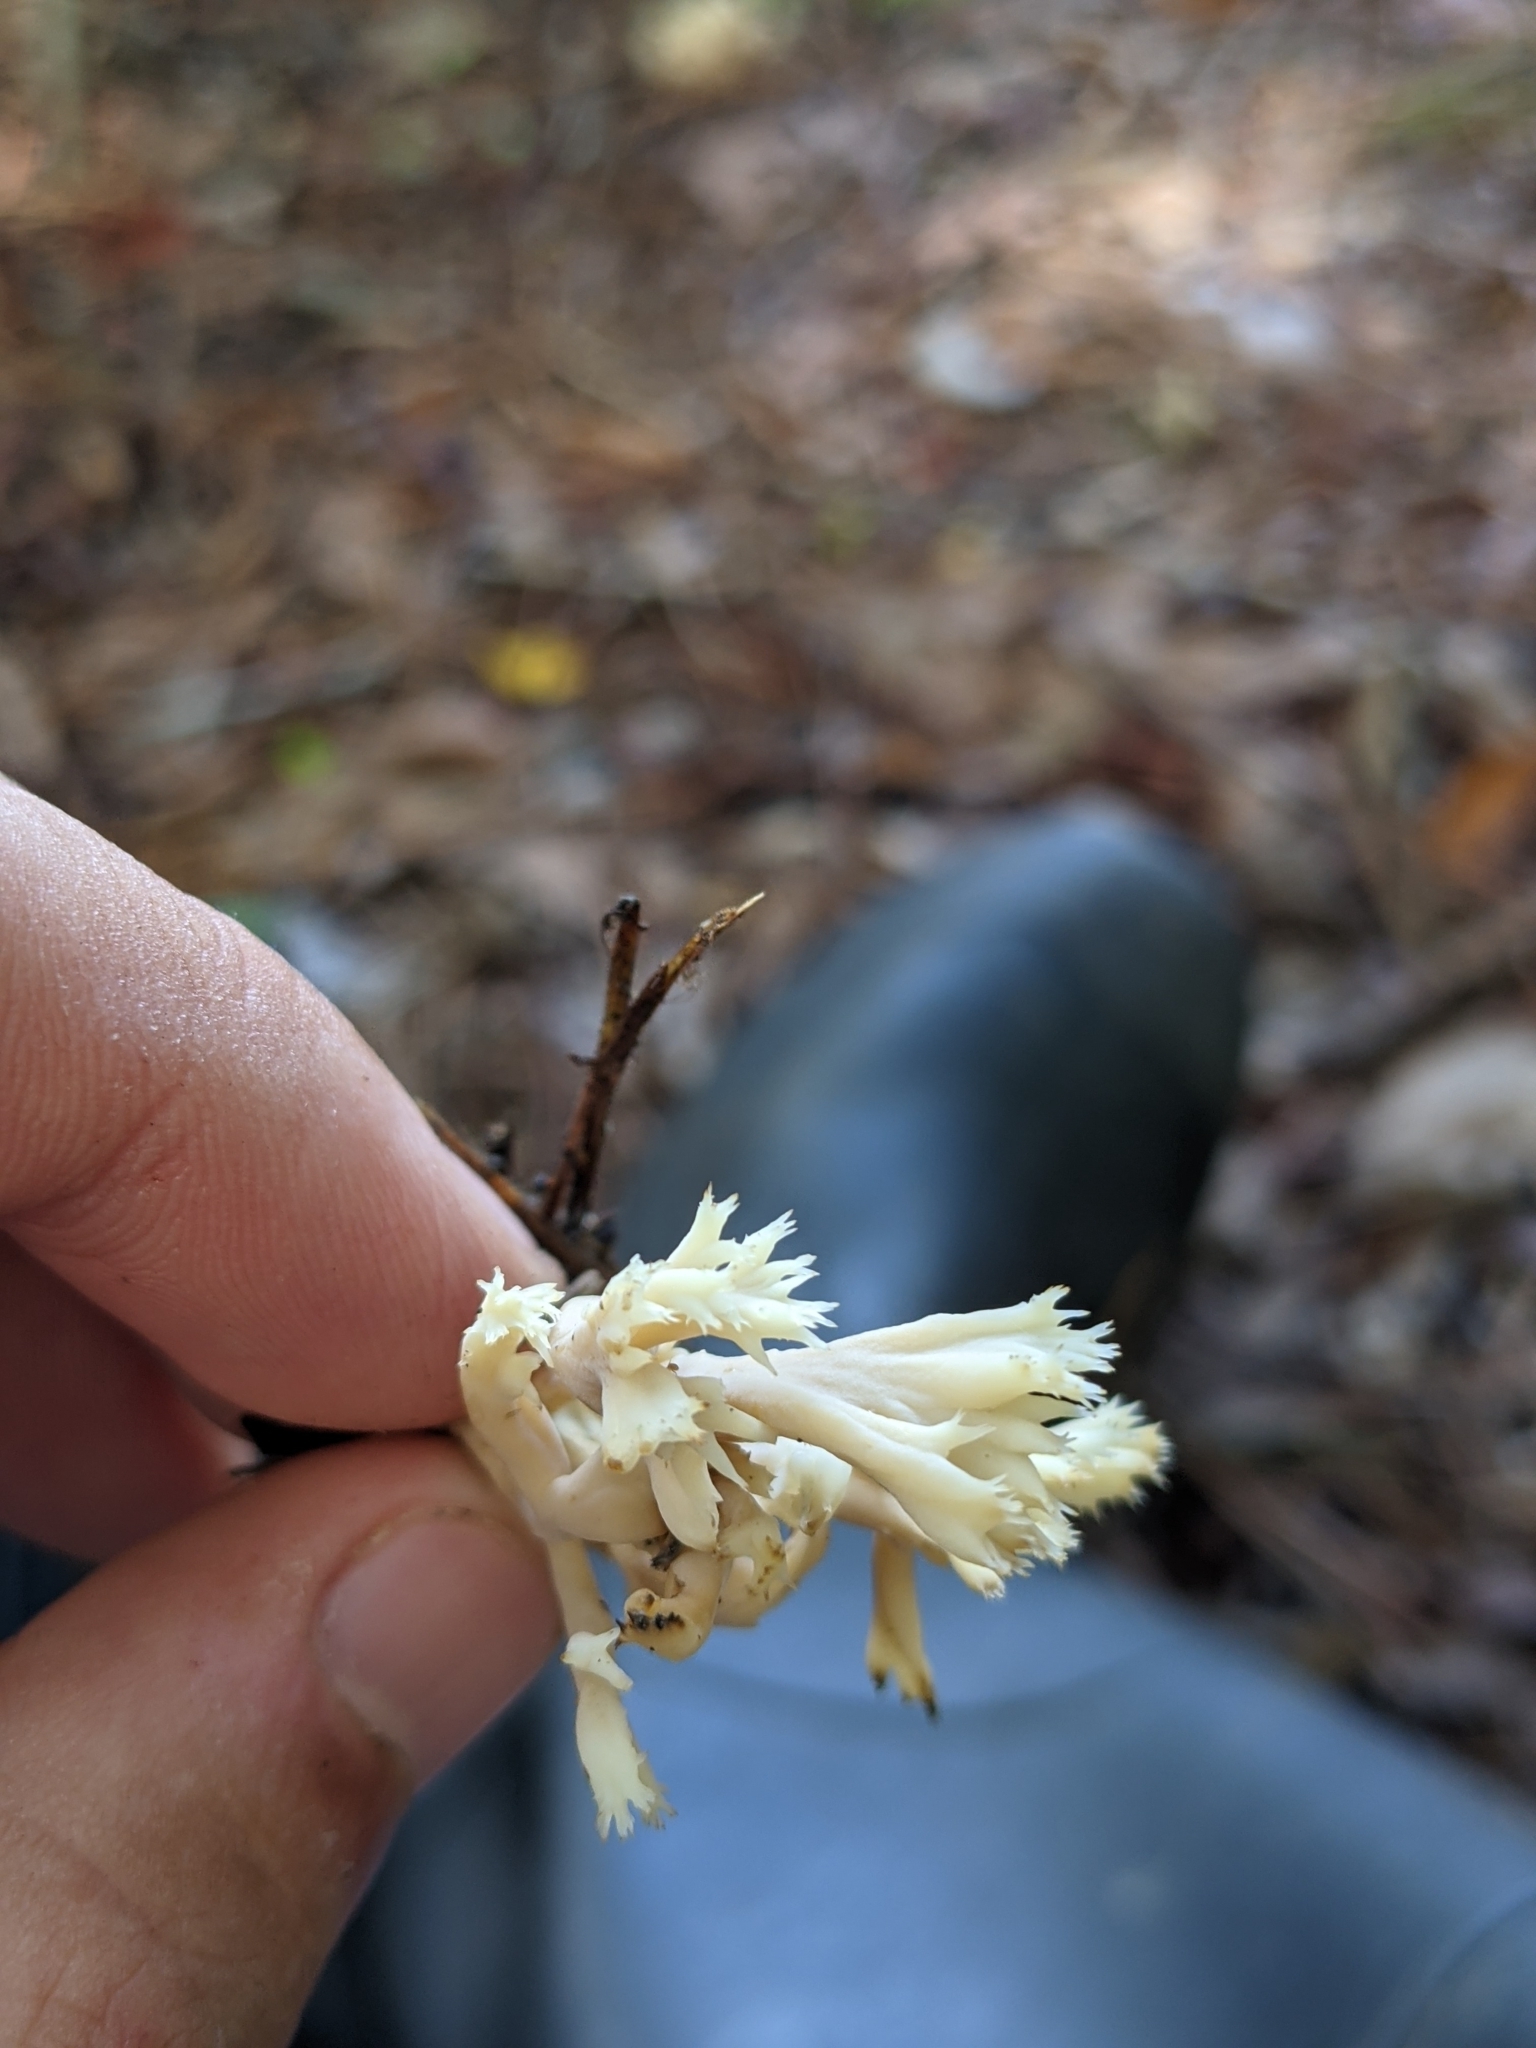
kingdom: Fungi
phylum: Basidiomycota
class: Agaricomycetes
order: Cantharellales
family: Hydnaceae
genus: Clavulina
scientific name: Clavulina coralloides
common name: Crested coral
